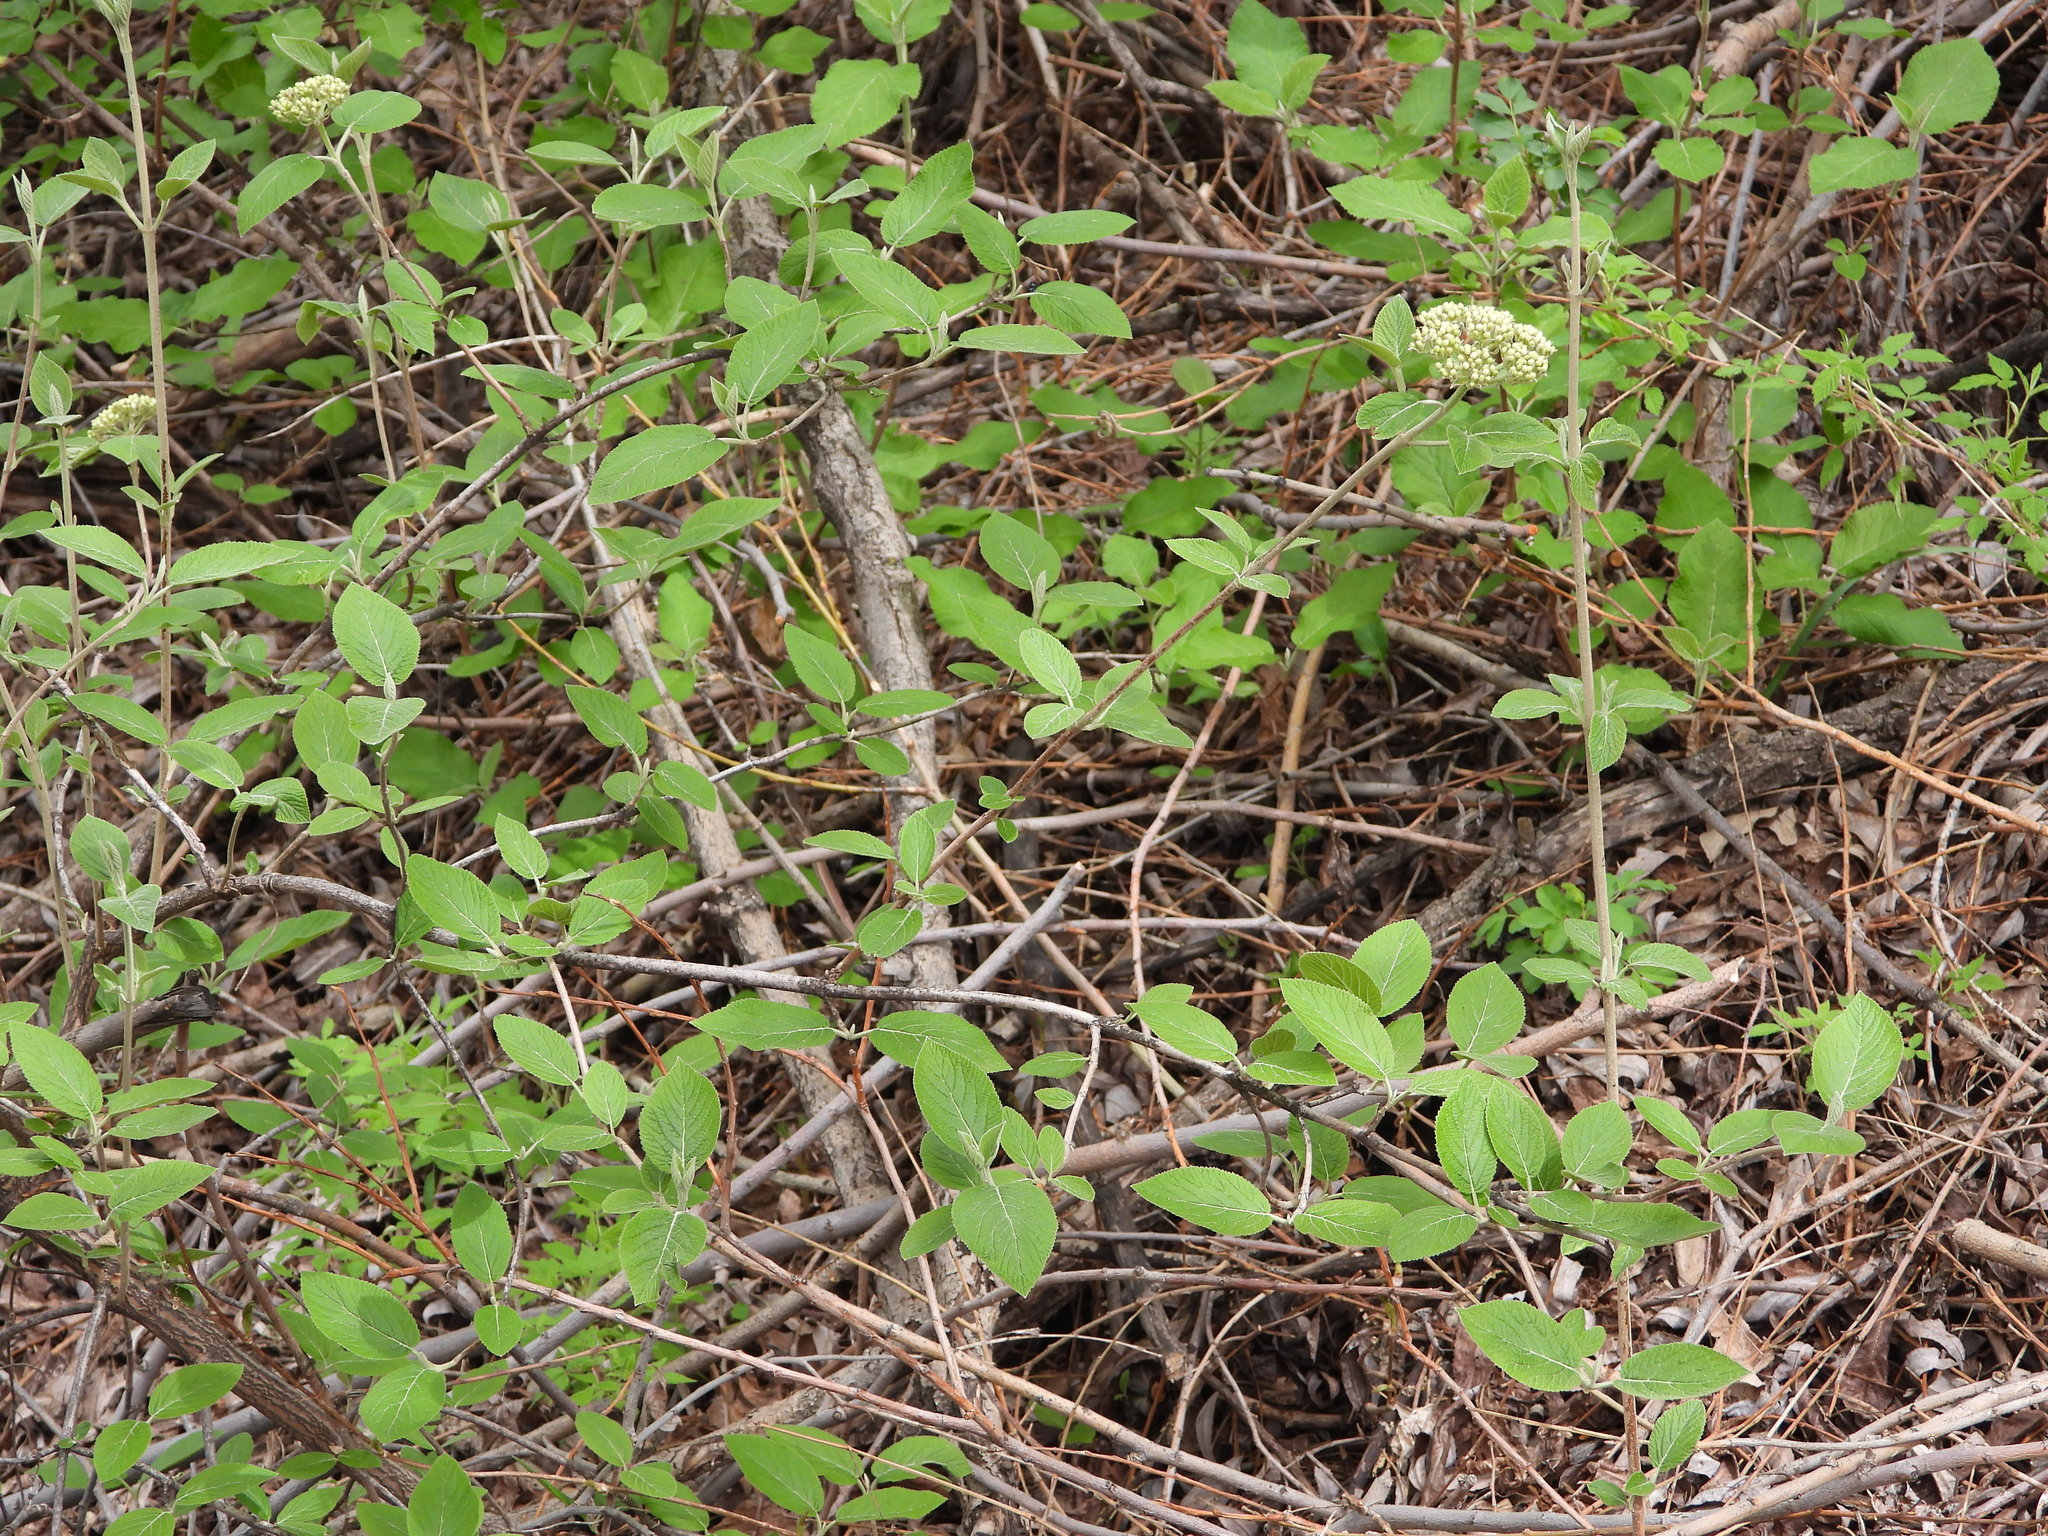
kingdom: Plantae
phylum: Tracheophyta
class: Magnoliopsida
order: Dipsacales
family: Viburnaceae
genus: Viburnum
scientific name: Viburnum lantana
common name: Wayfaring tree
